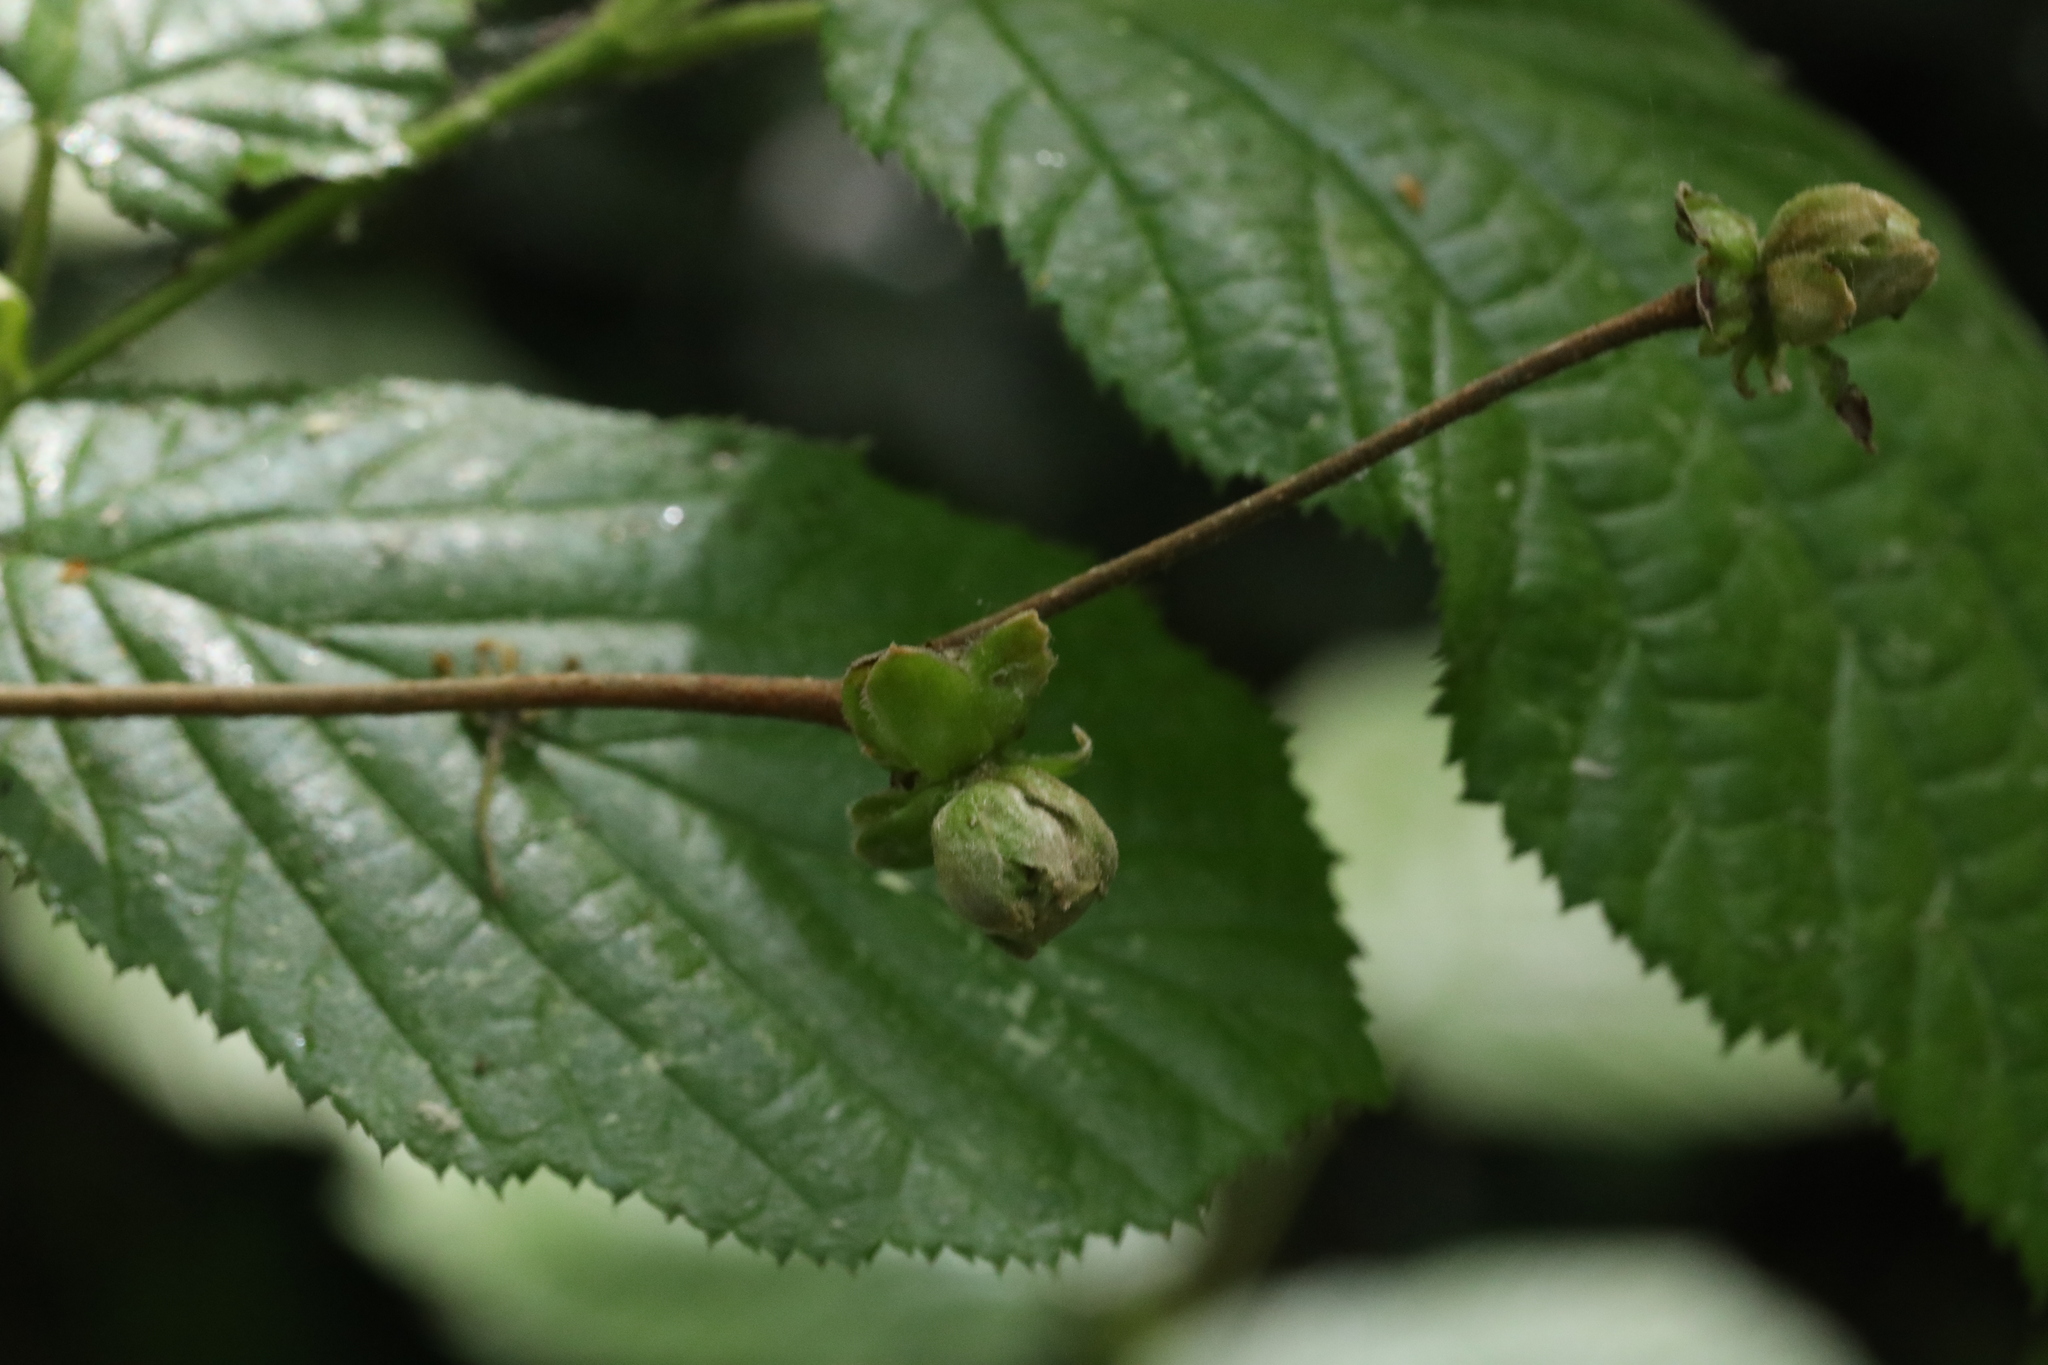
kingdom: Animalia
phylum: Arthropoda
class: Arachnida
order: Trombidiformes
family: Phytoptidae
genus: Phytoptus
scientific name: Phytoptus avellanae
